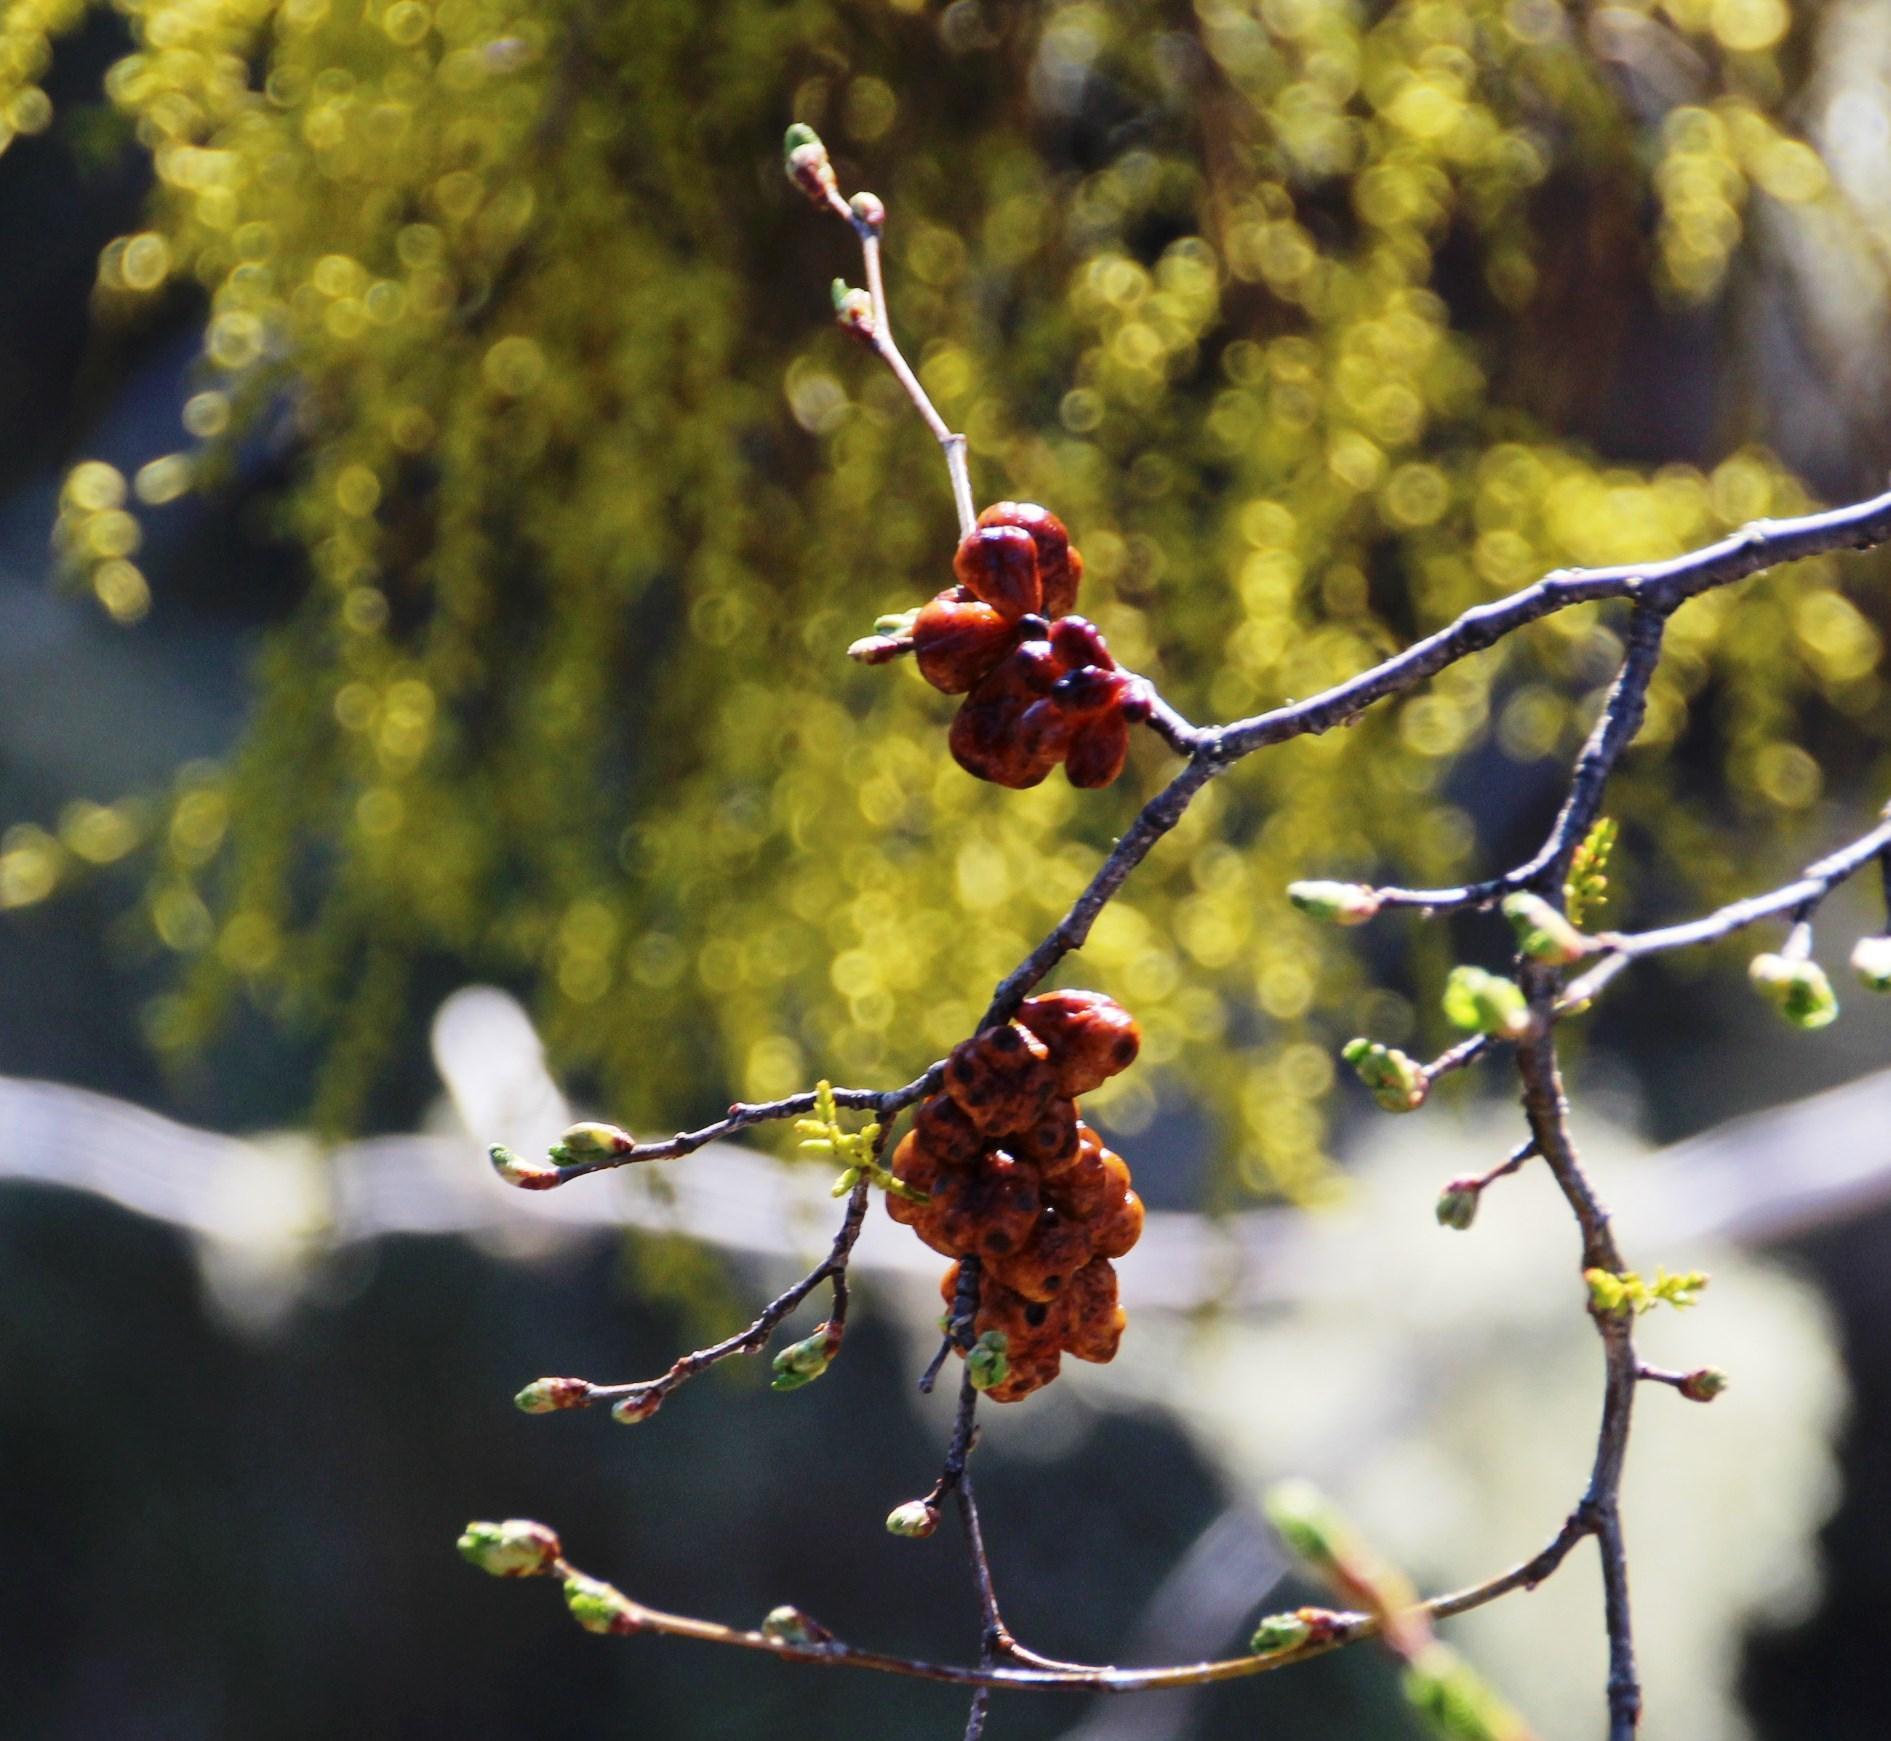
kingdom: Plantae
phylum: Tracheophyta
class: Magnoliopsida
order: Santalales
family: Misodendraceae
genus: Misodendrum
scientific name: Misodendrum angulatum
